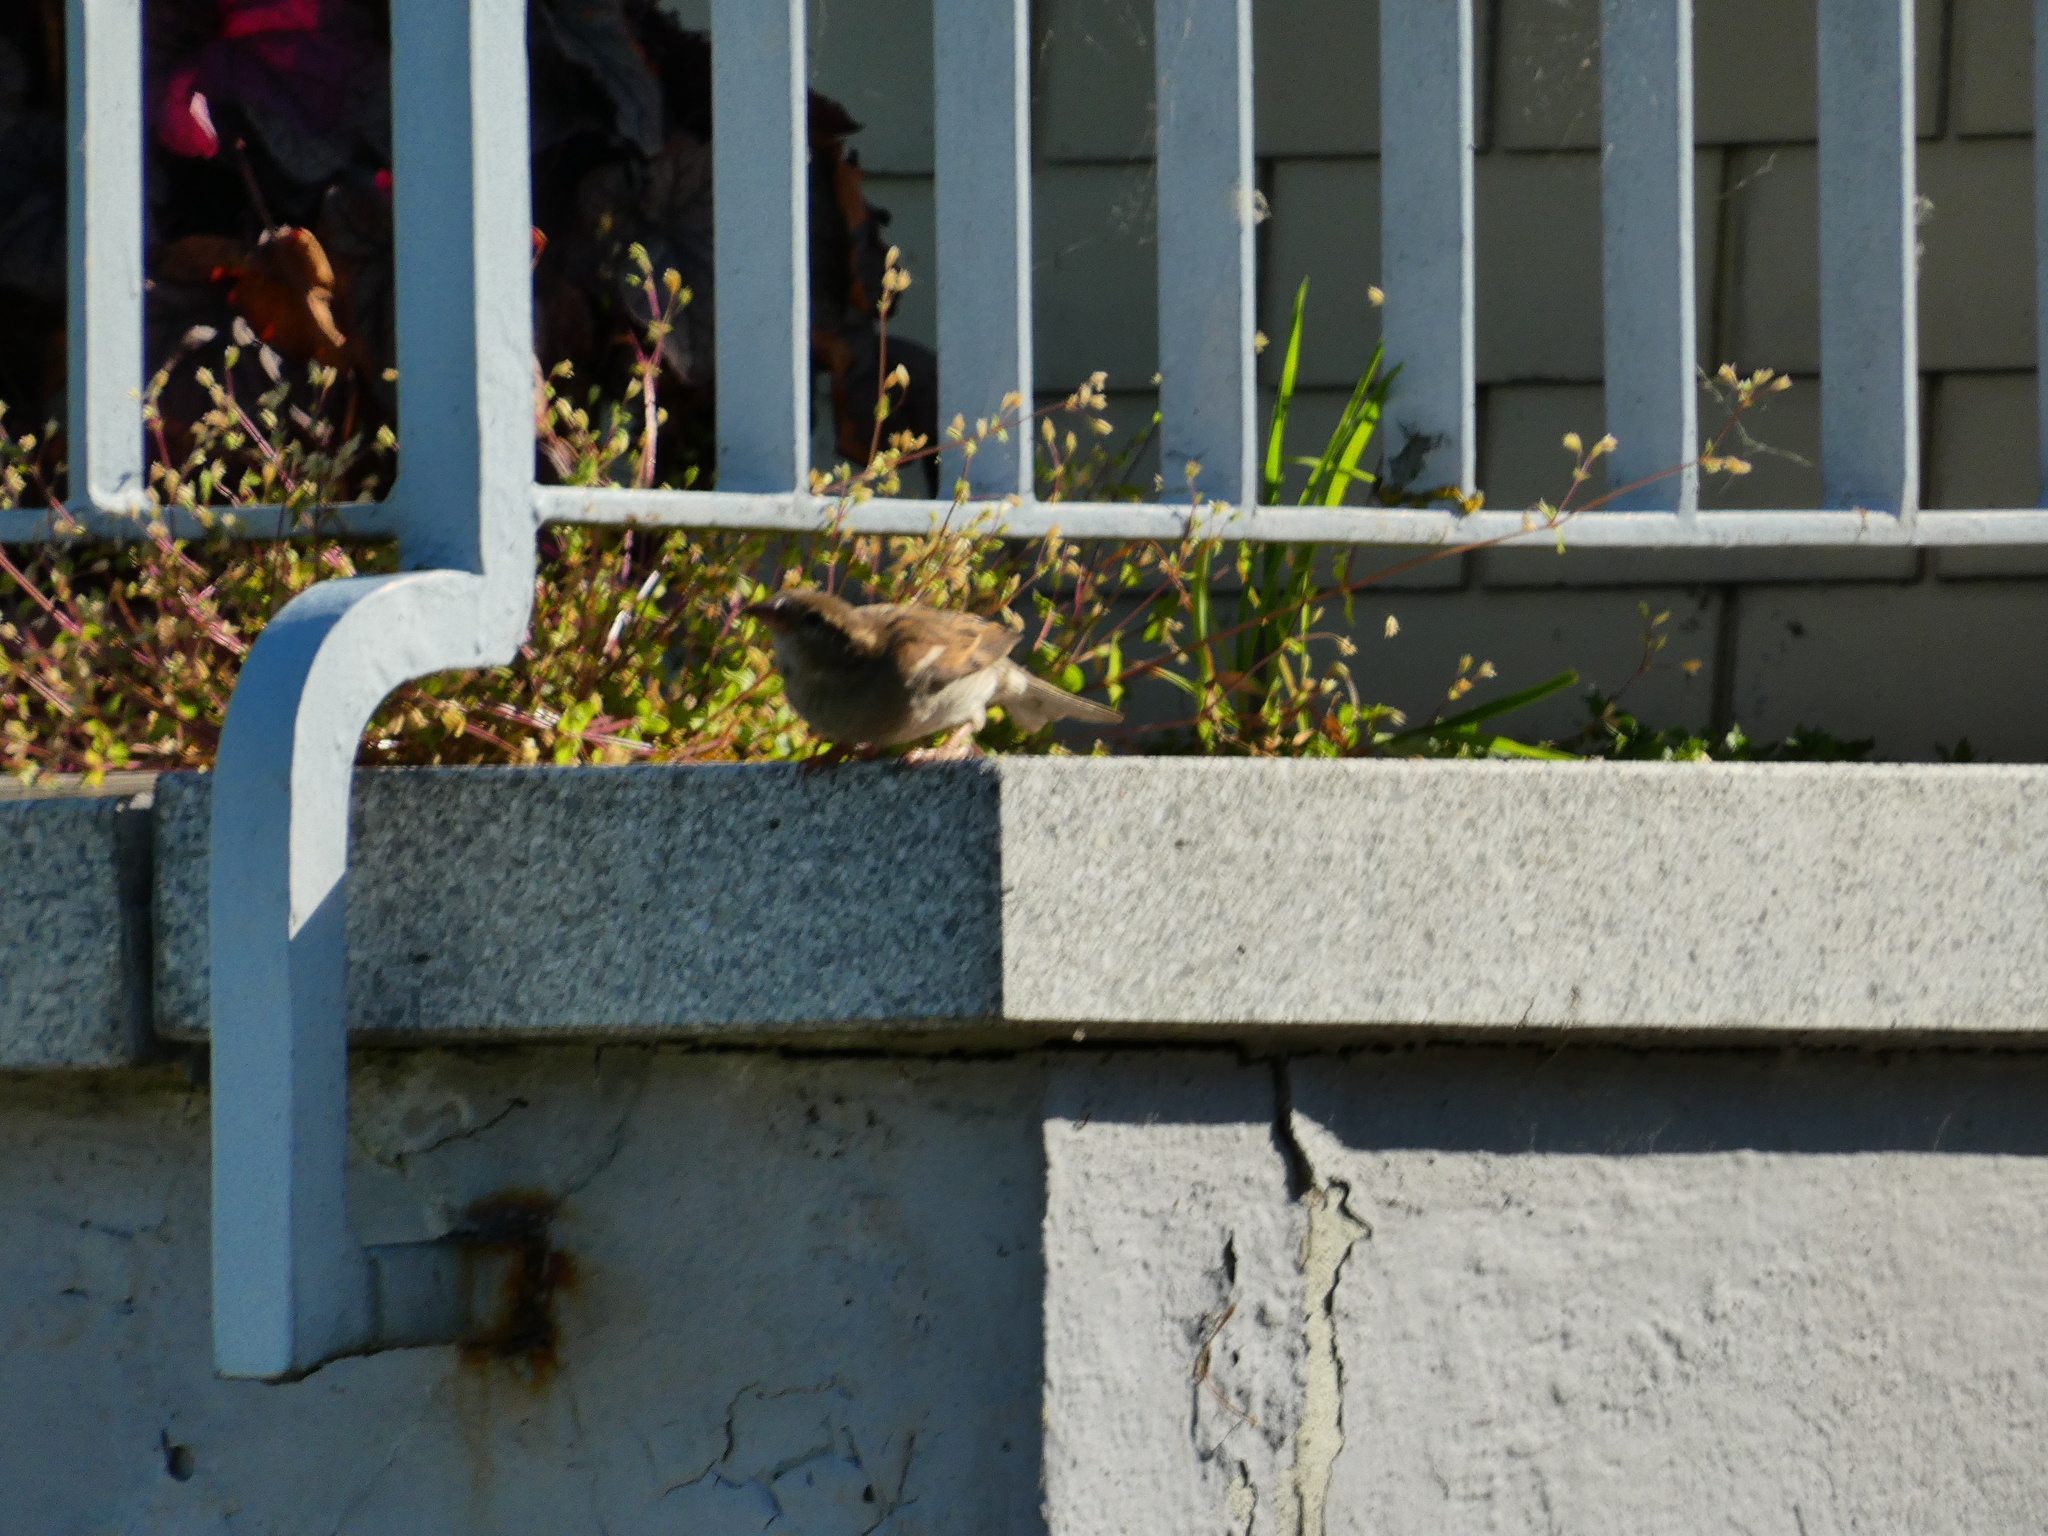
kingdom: Animalia
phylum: Chordata
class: Aves
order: Passeriformes
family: Passeridae
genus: Passer
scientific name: Passer domesticus
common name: House sparrow
